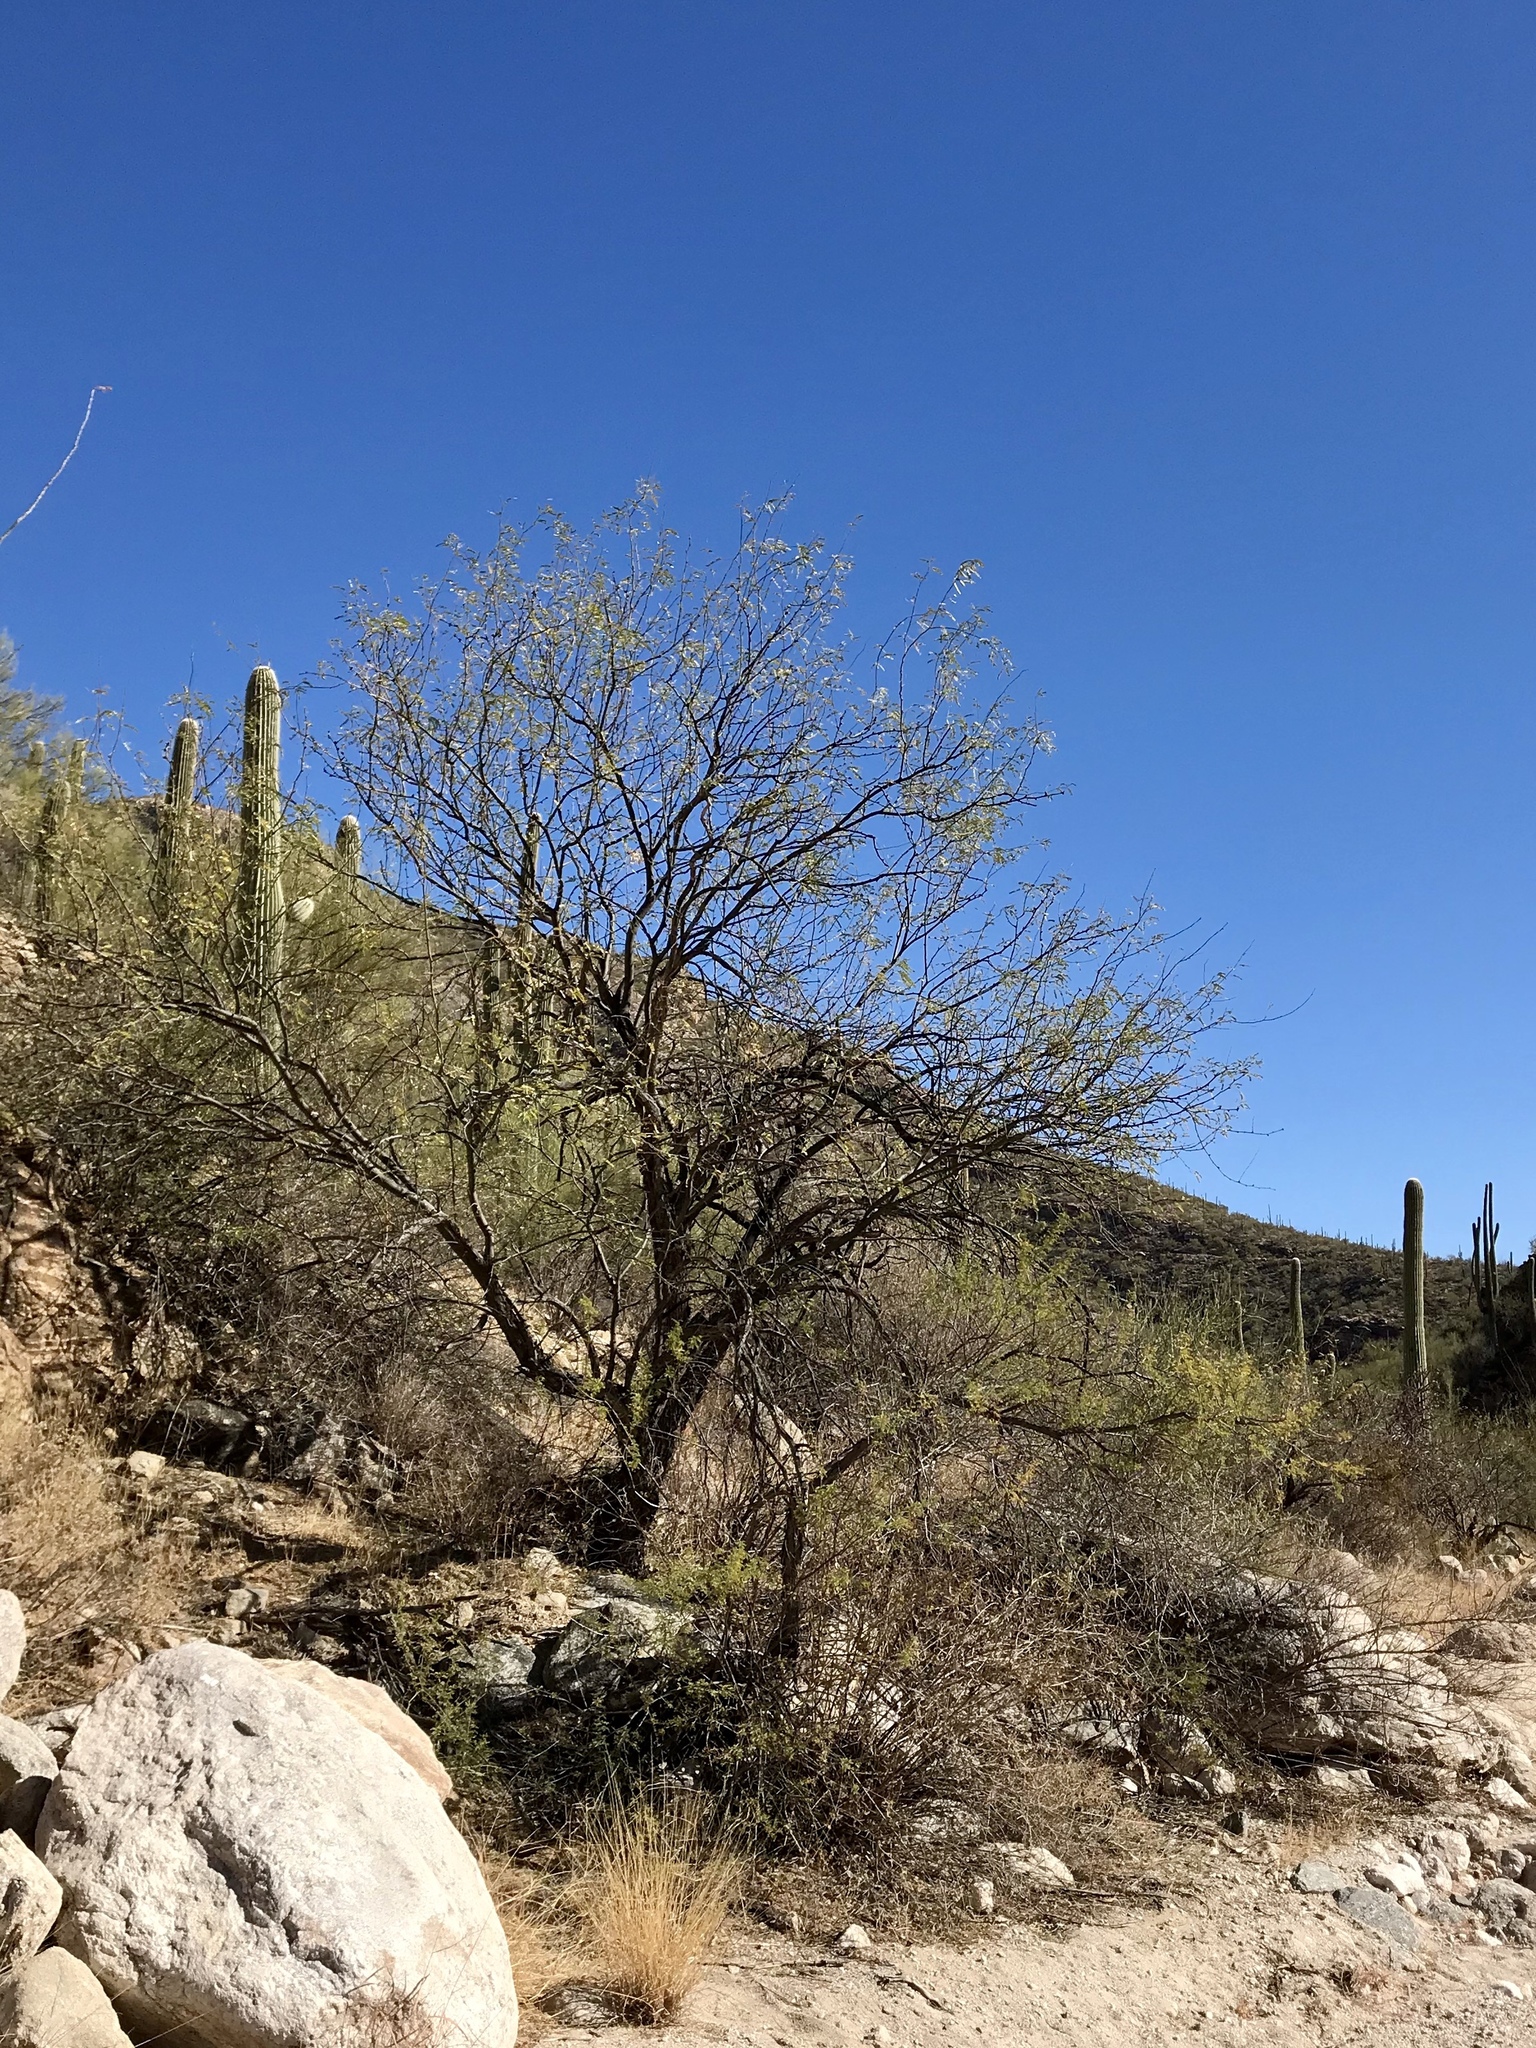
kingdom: Plantae
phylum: Tracheophyta
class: Magnoliopsida
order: Fabales
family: Fabaceae
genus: Prosopis
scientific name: Prosopis velutina
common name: Velvet mesquite
